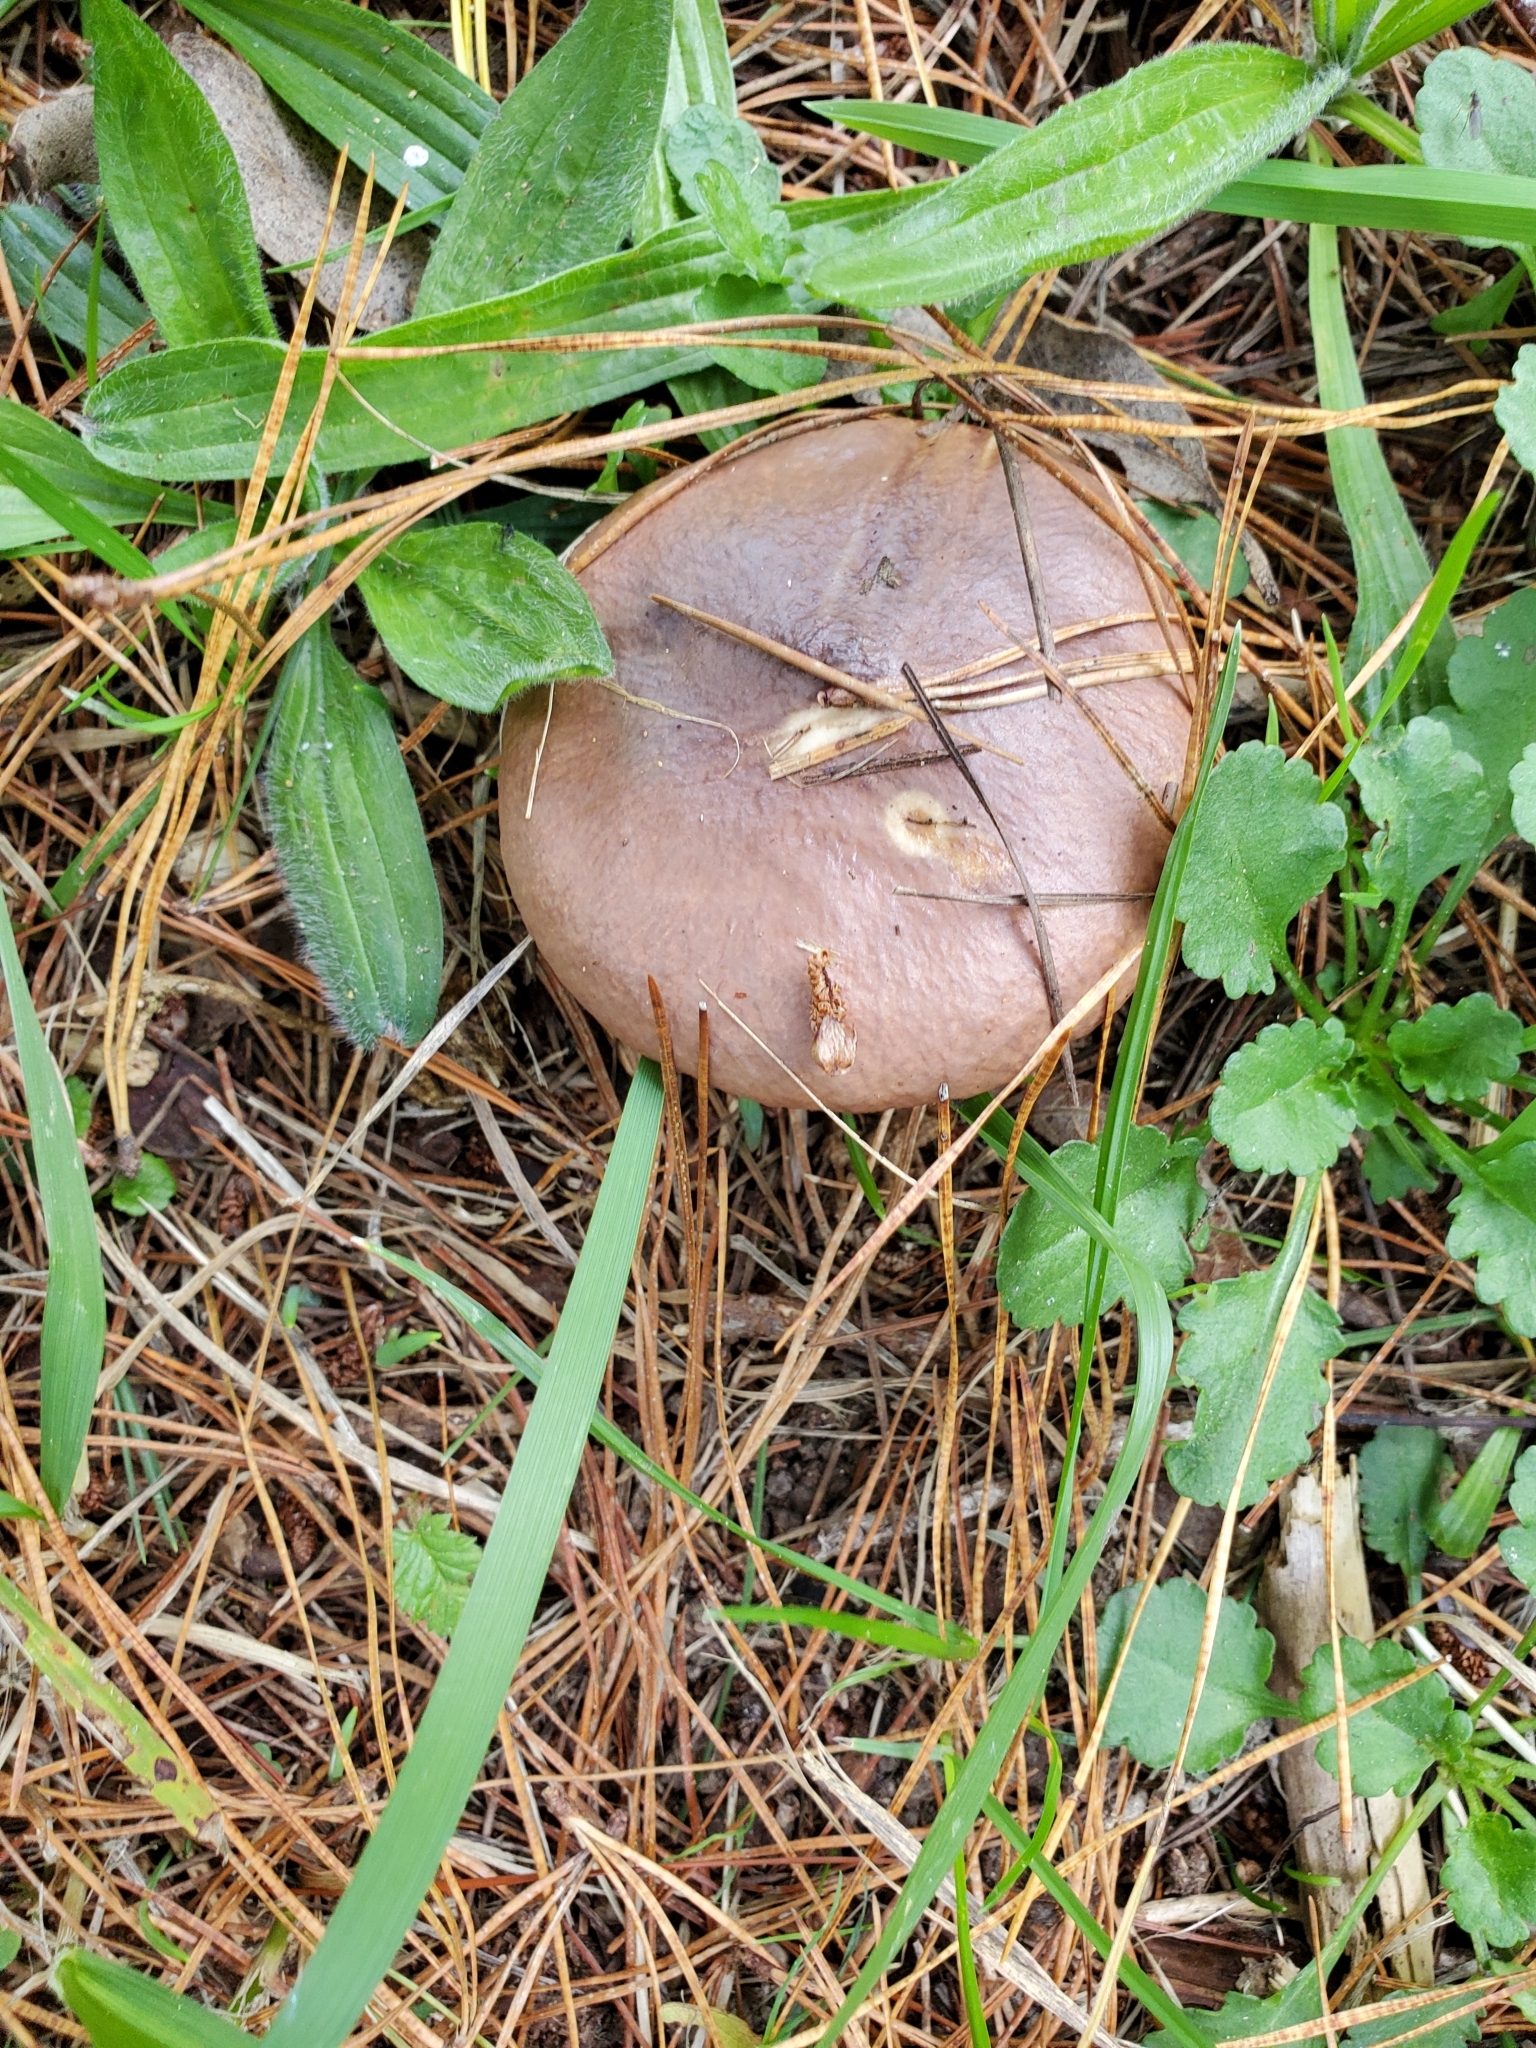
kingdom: Fungi
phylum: Basidiomycota
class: Agaricomycetes
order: Boletales
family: Suillaceae
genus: Suillus
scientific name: Suillus luteus
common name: Slippery jack
